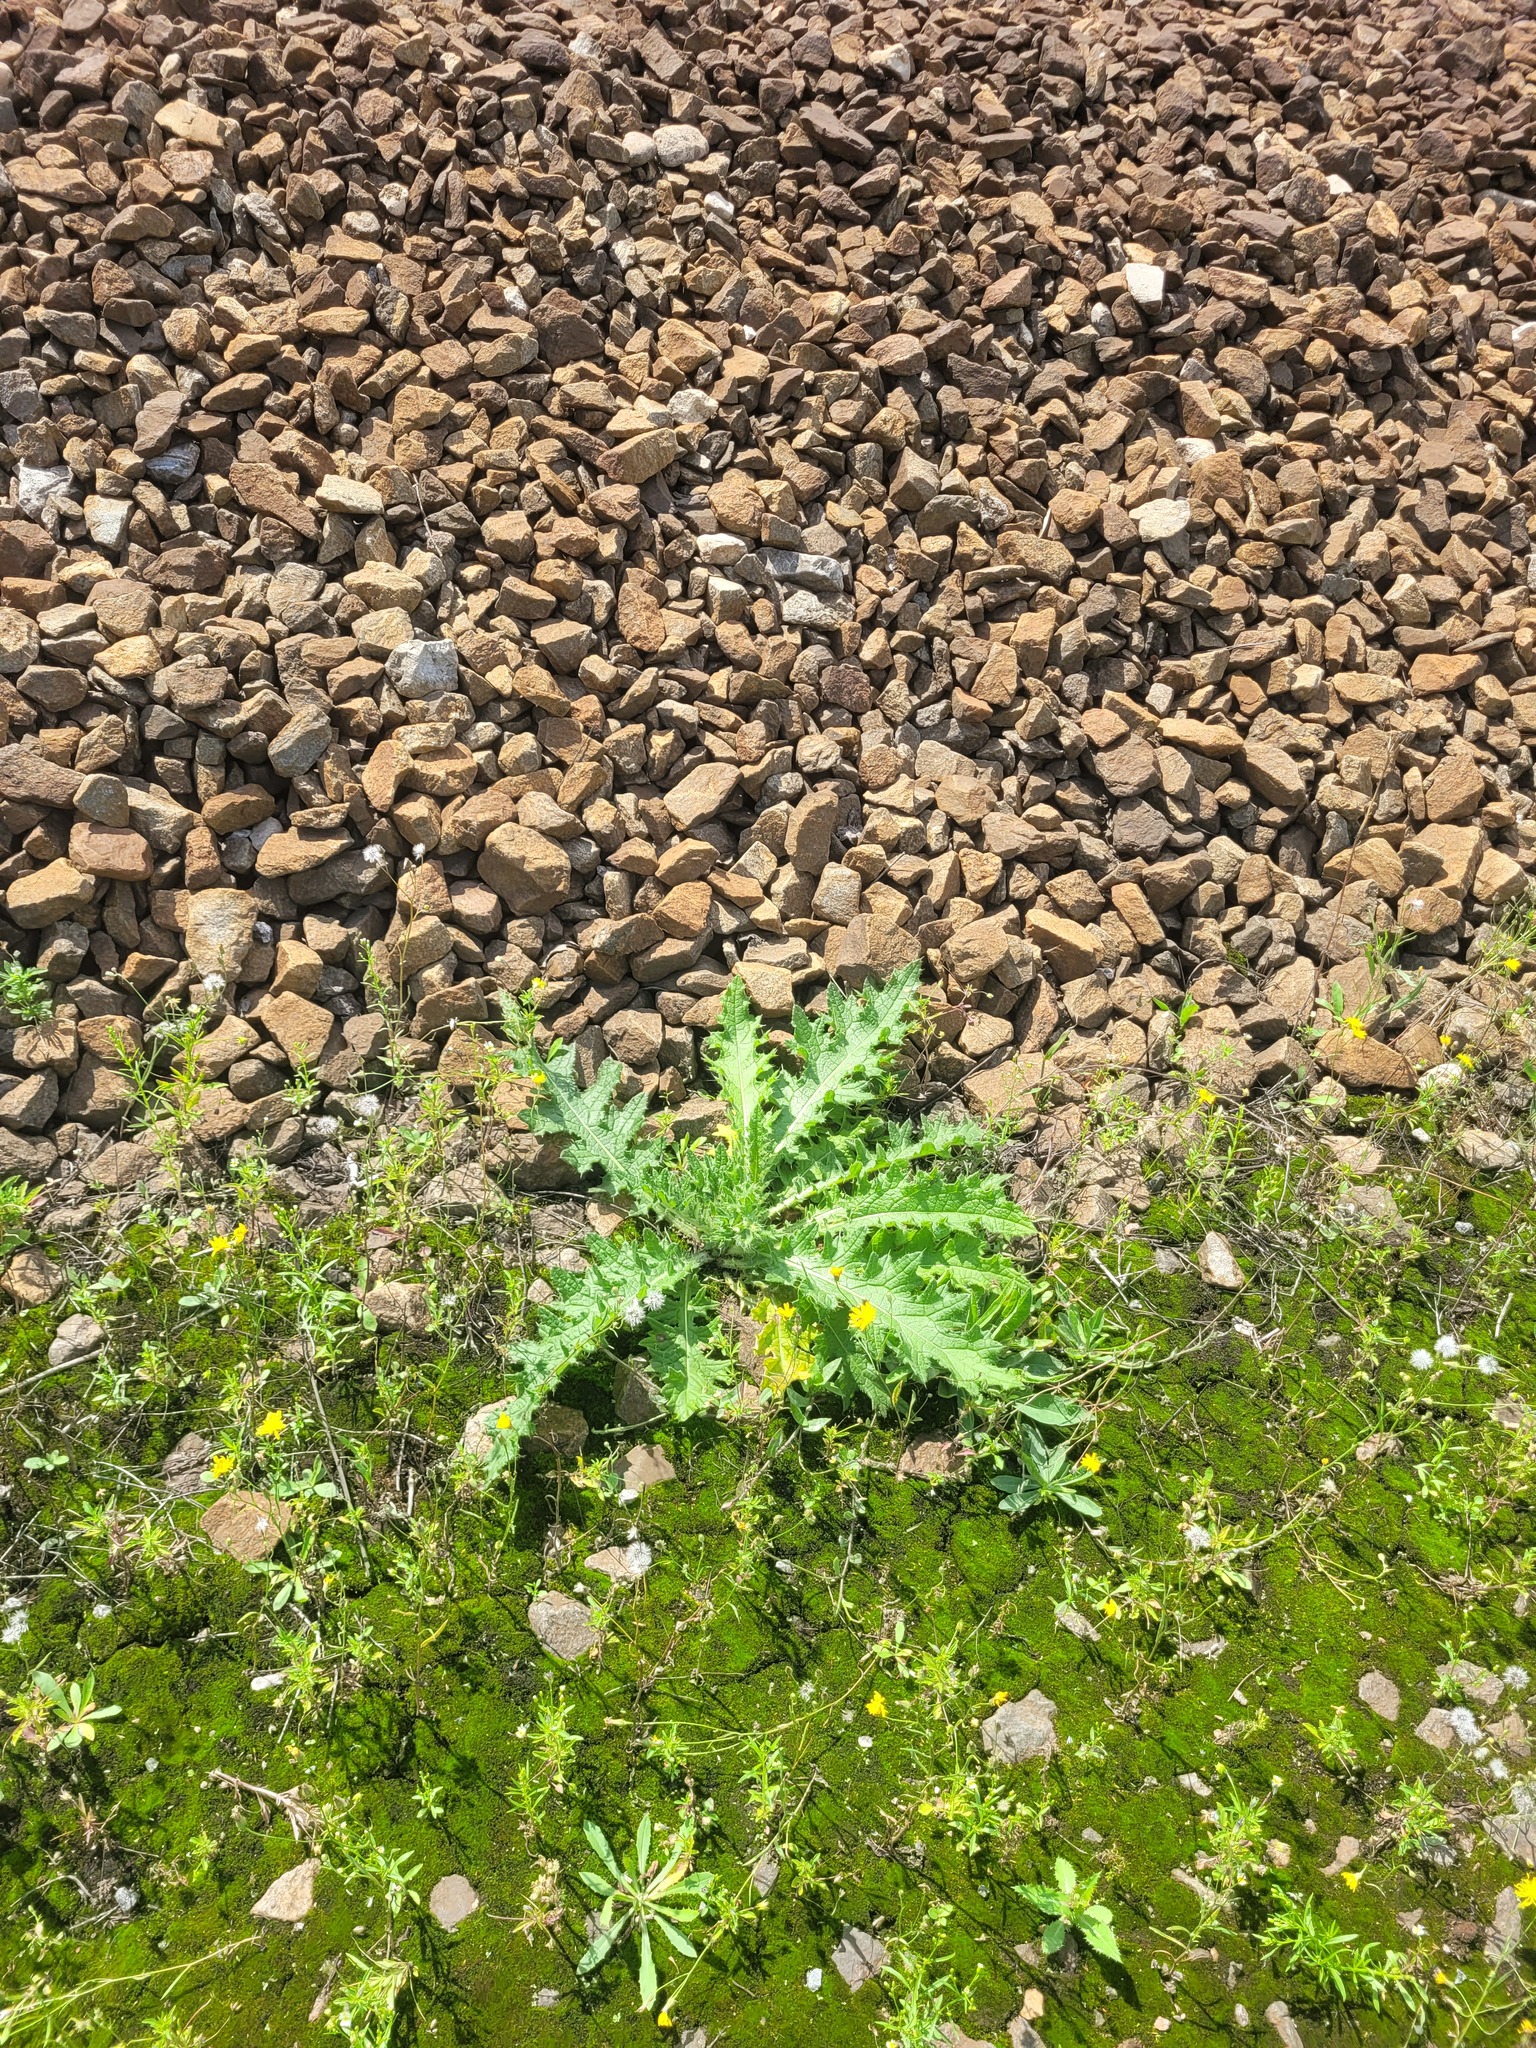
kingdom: Plantae
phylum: Tracheophyta
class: Magnoliopsida
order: Asterales
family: Asteraceae
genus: Cirsium
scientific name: Cirsium vulgare
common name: Bull thistle
